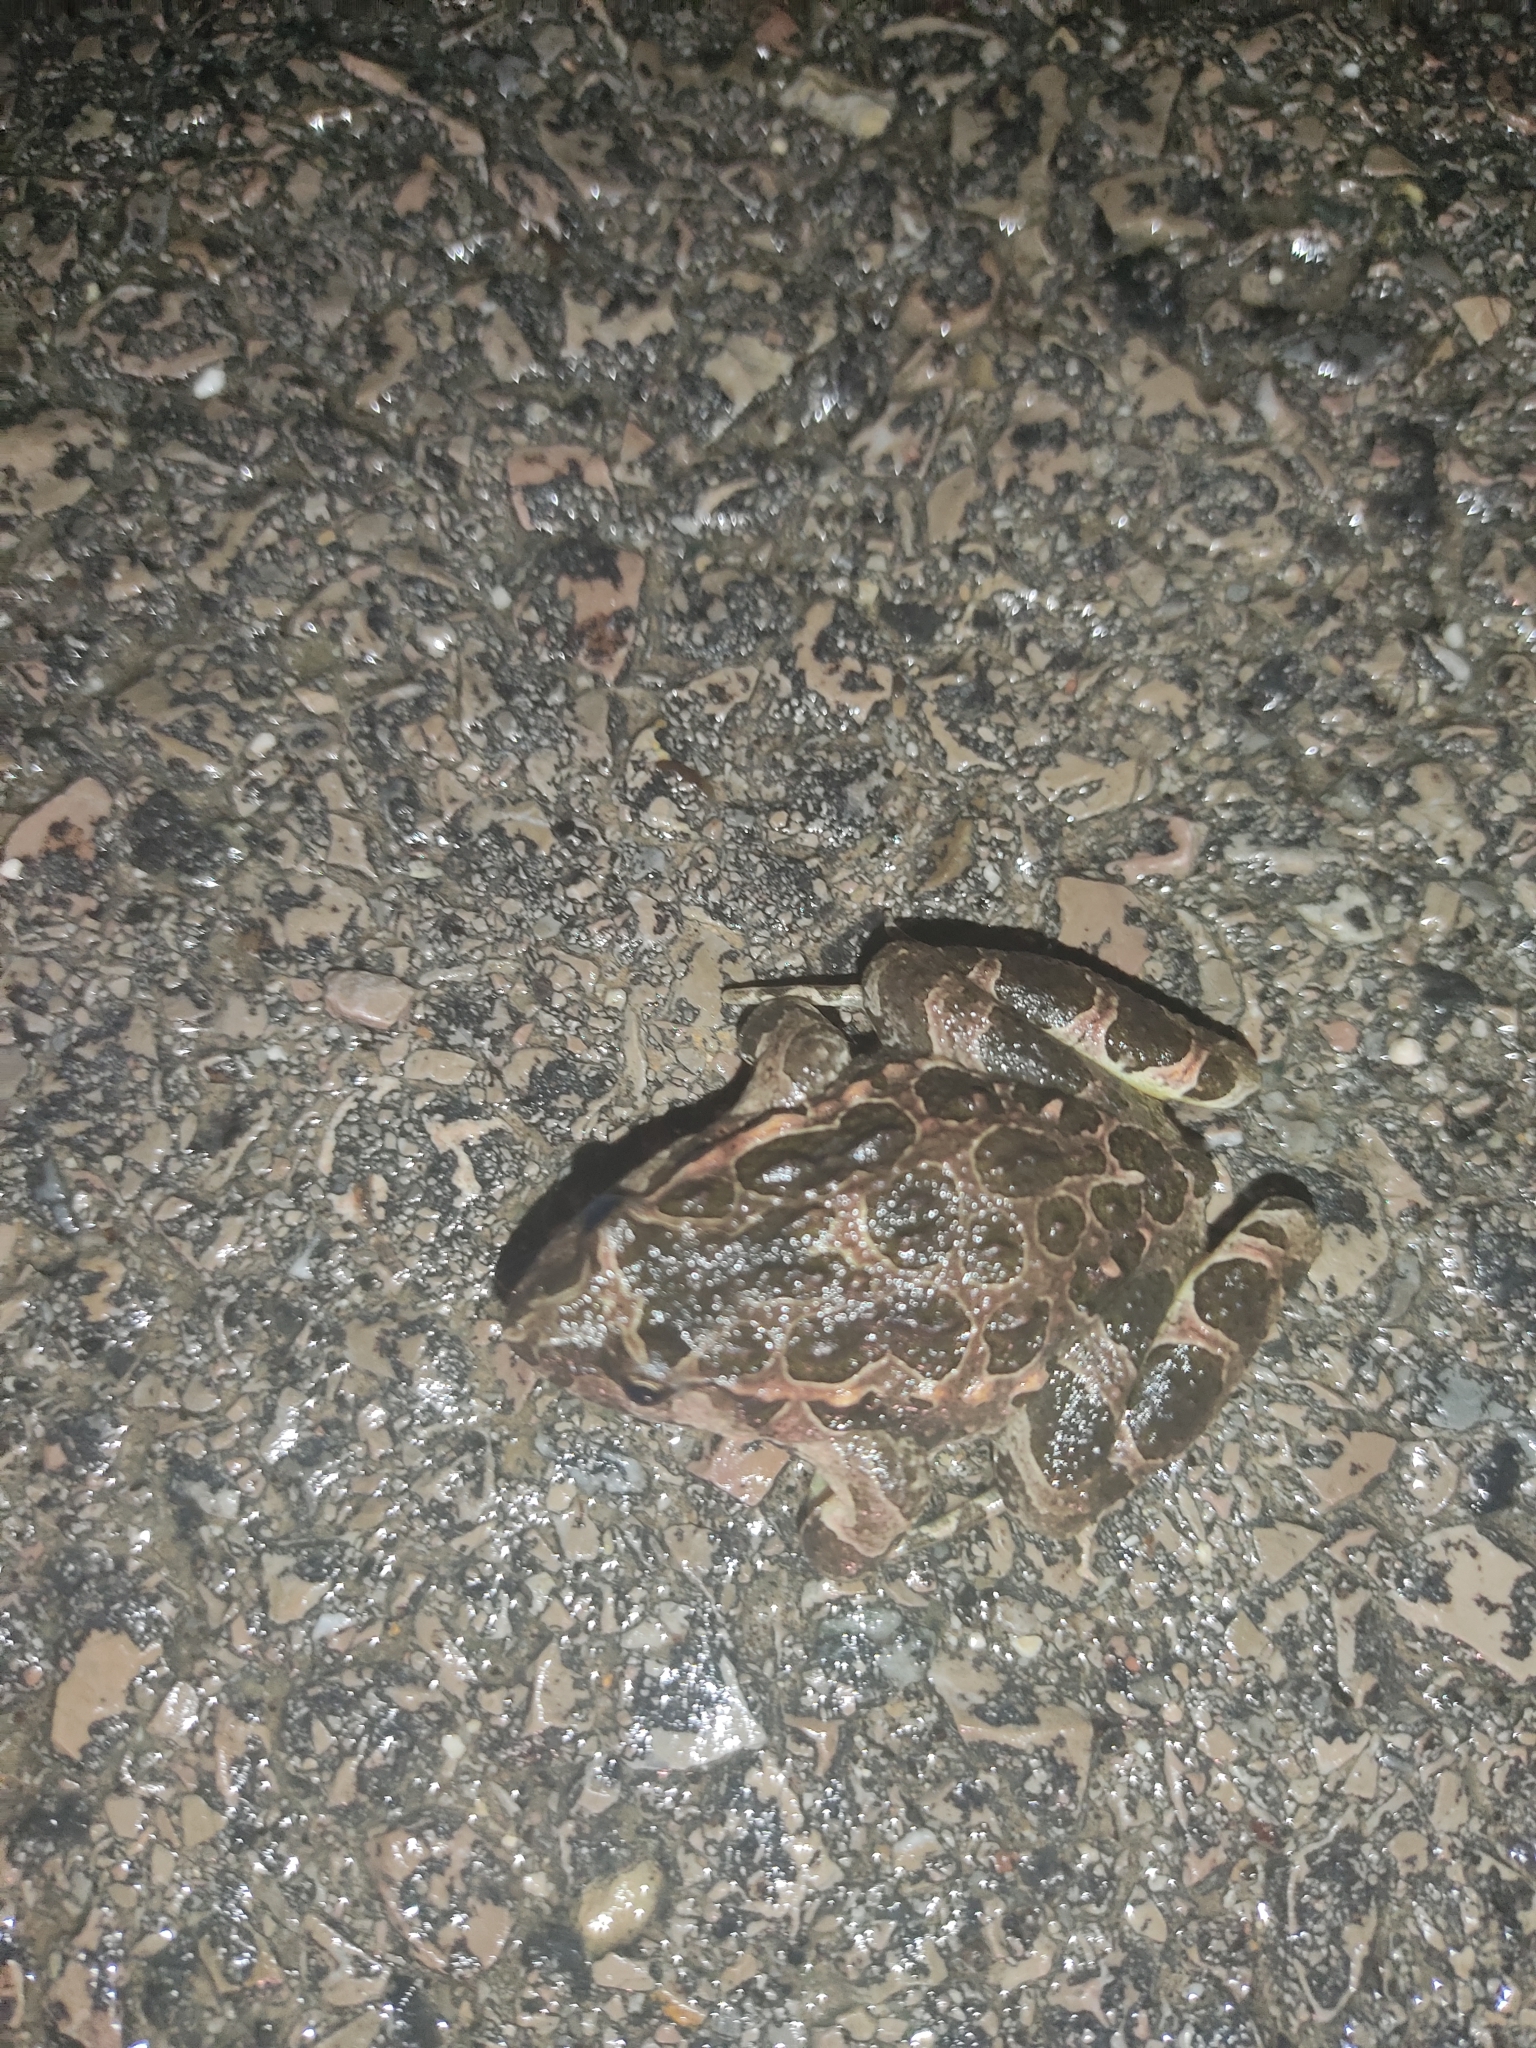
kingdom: Animalia
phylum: Chordata
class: Amphibia
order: Anura
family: Alytidae
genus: Discoglossus
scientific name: Discoglossus pictus
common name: Painted frog
